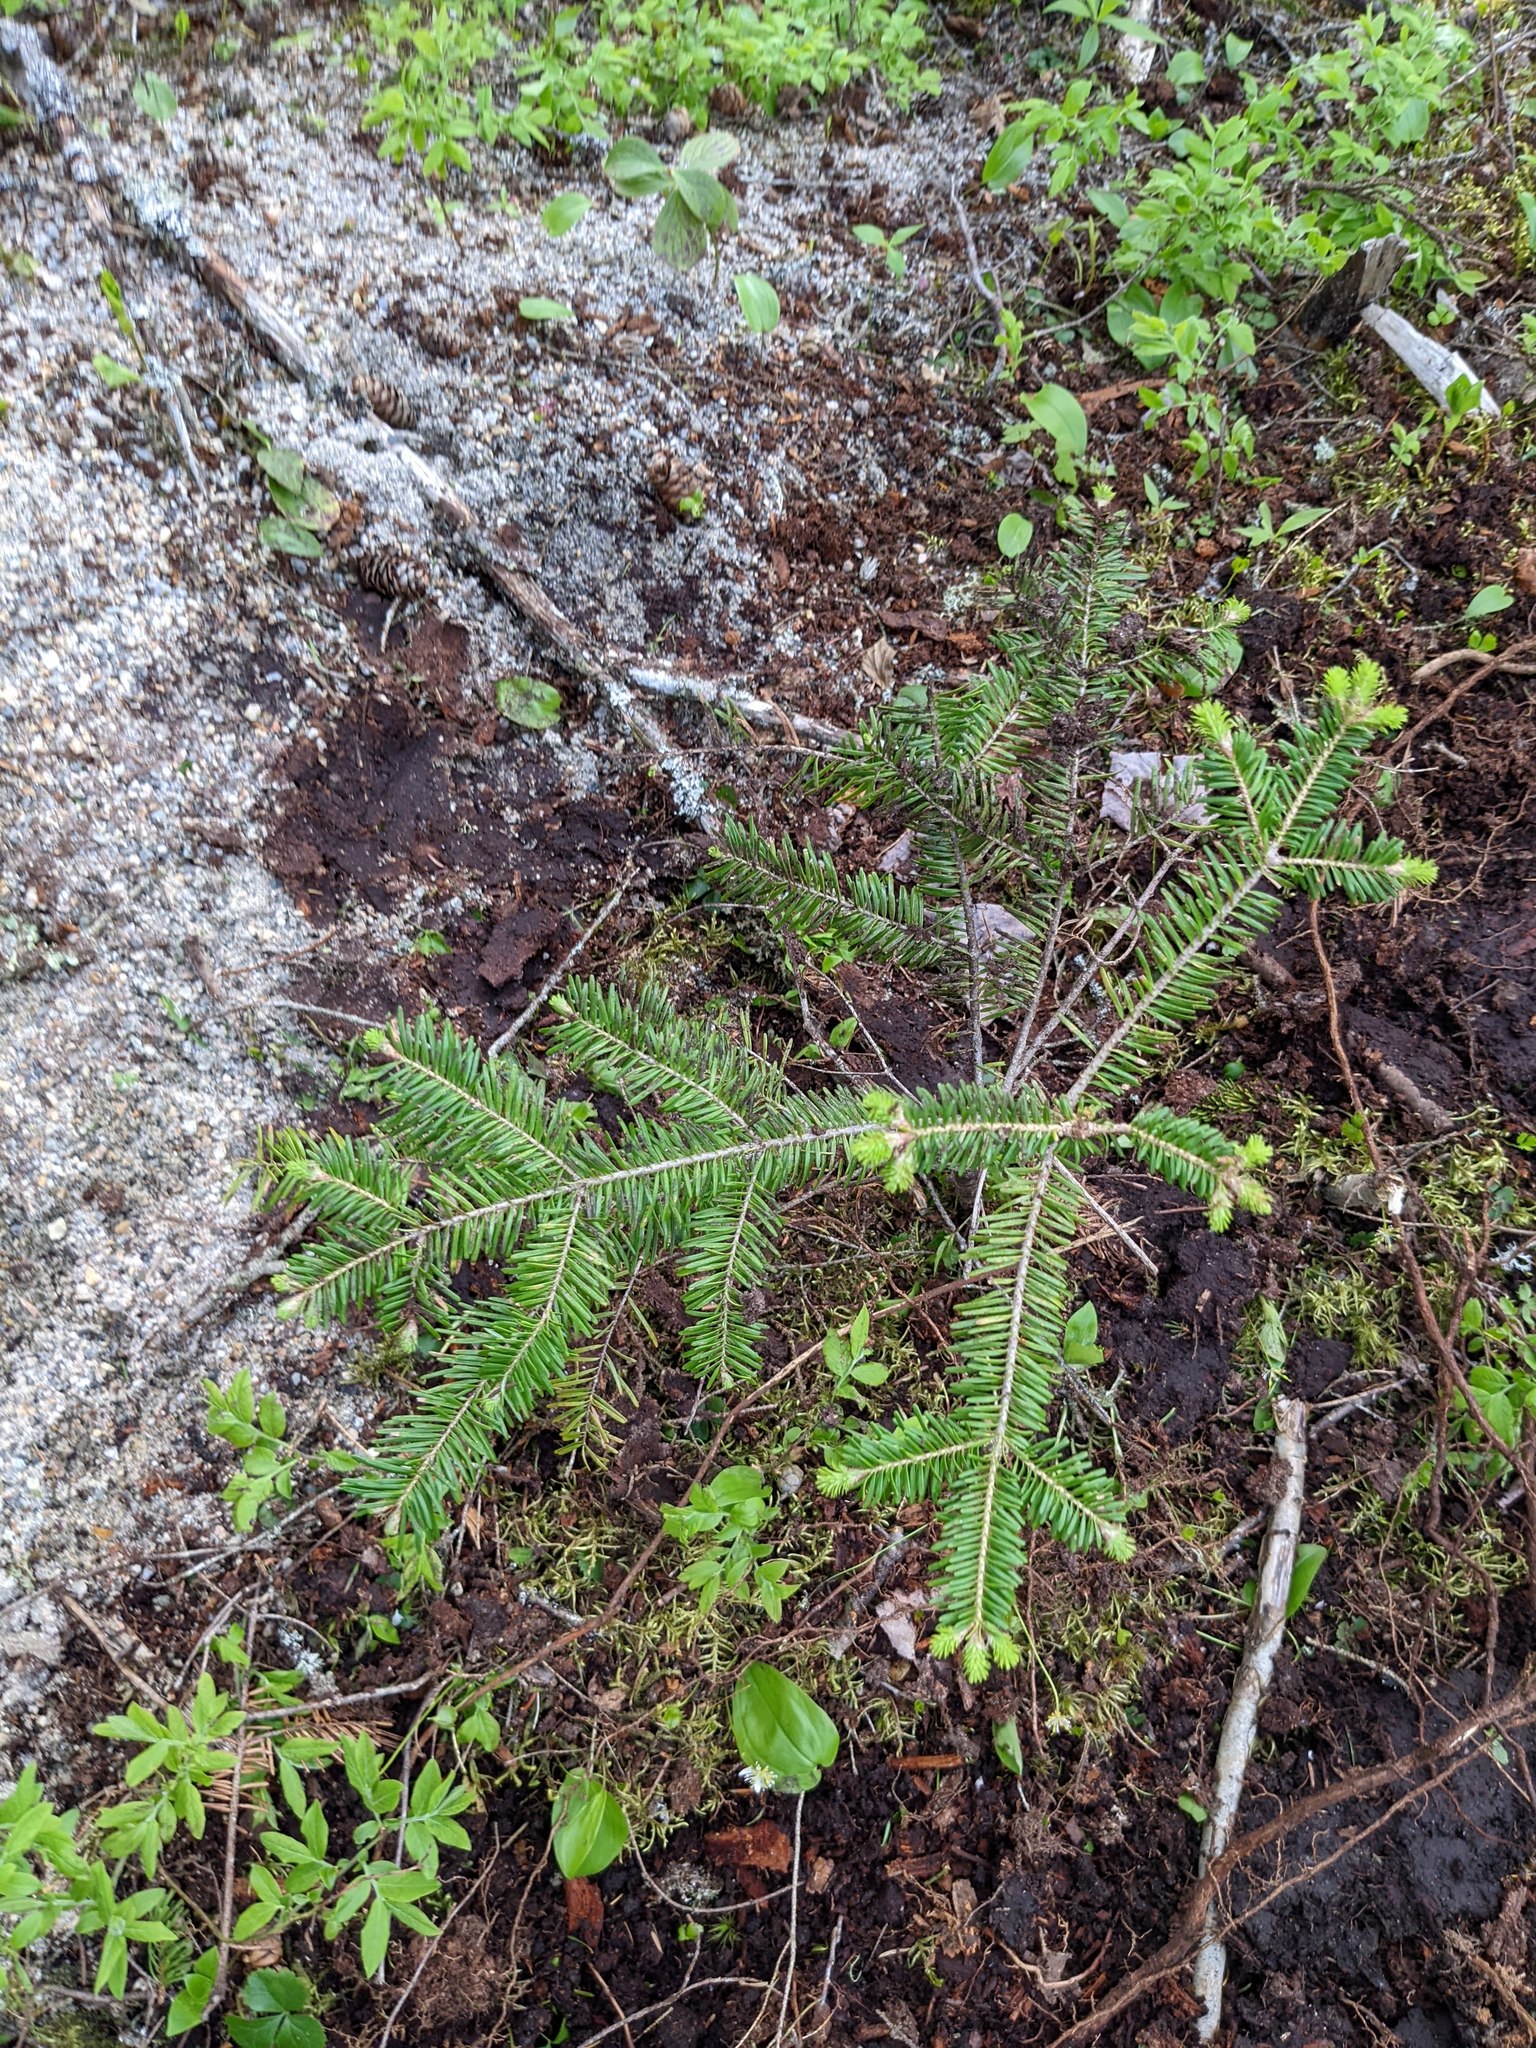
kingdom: Plantae
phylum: Tracheophyta
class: Pinopsida
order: Pinales
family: Pinaceae
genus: Abies
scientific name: Abies balsamea
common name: Balsam fir
